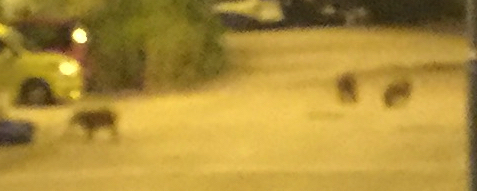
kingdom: Animalia
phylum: Chordata
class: Mammalia
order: Artiodactyla
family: Suidae
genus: Sus
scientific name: Sus scrofa
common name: Wild boar
